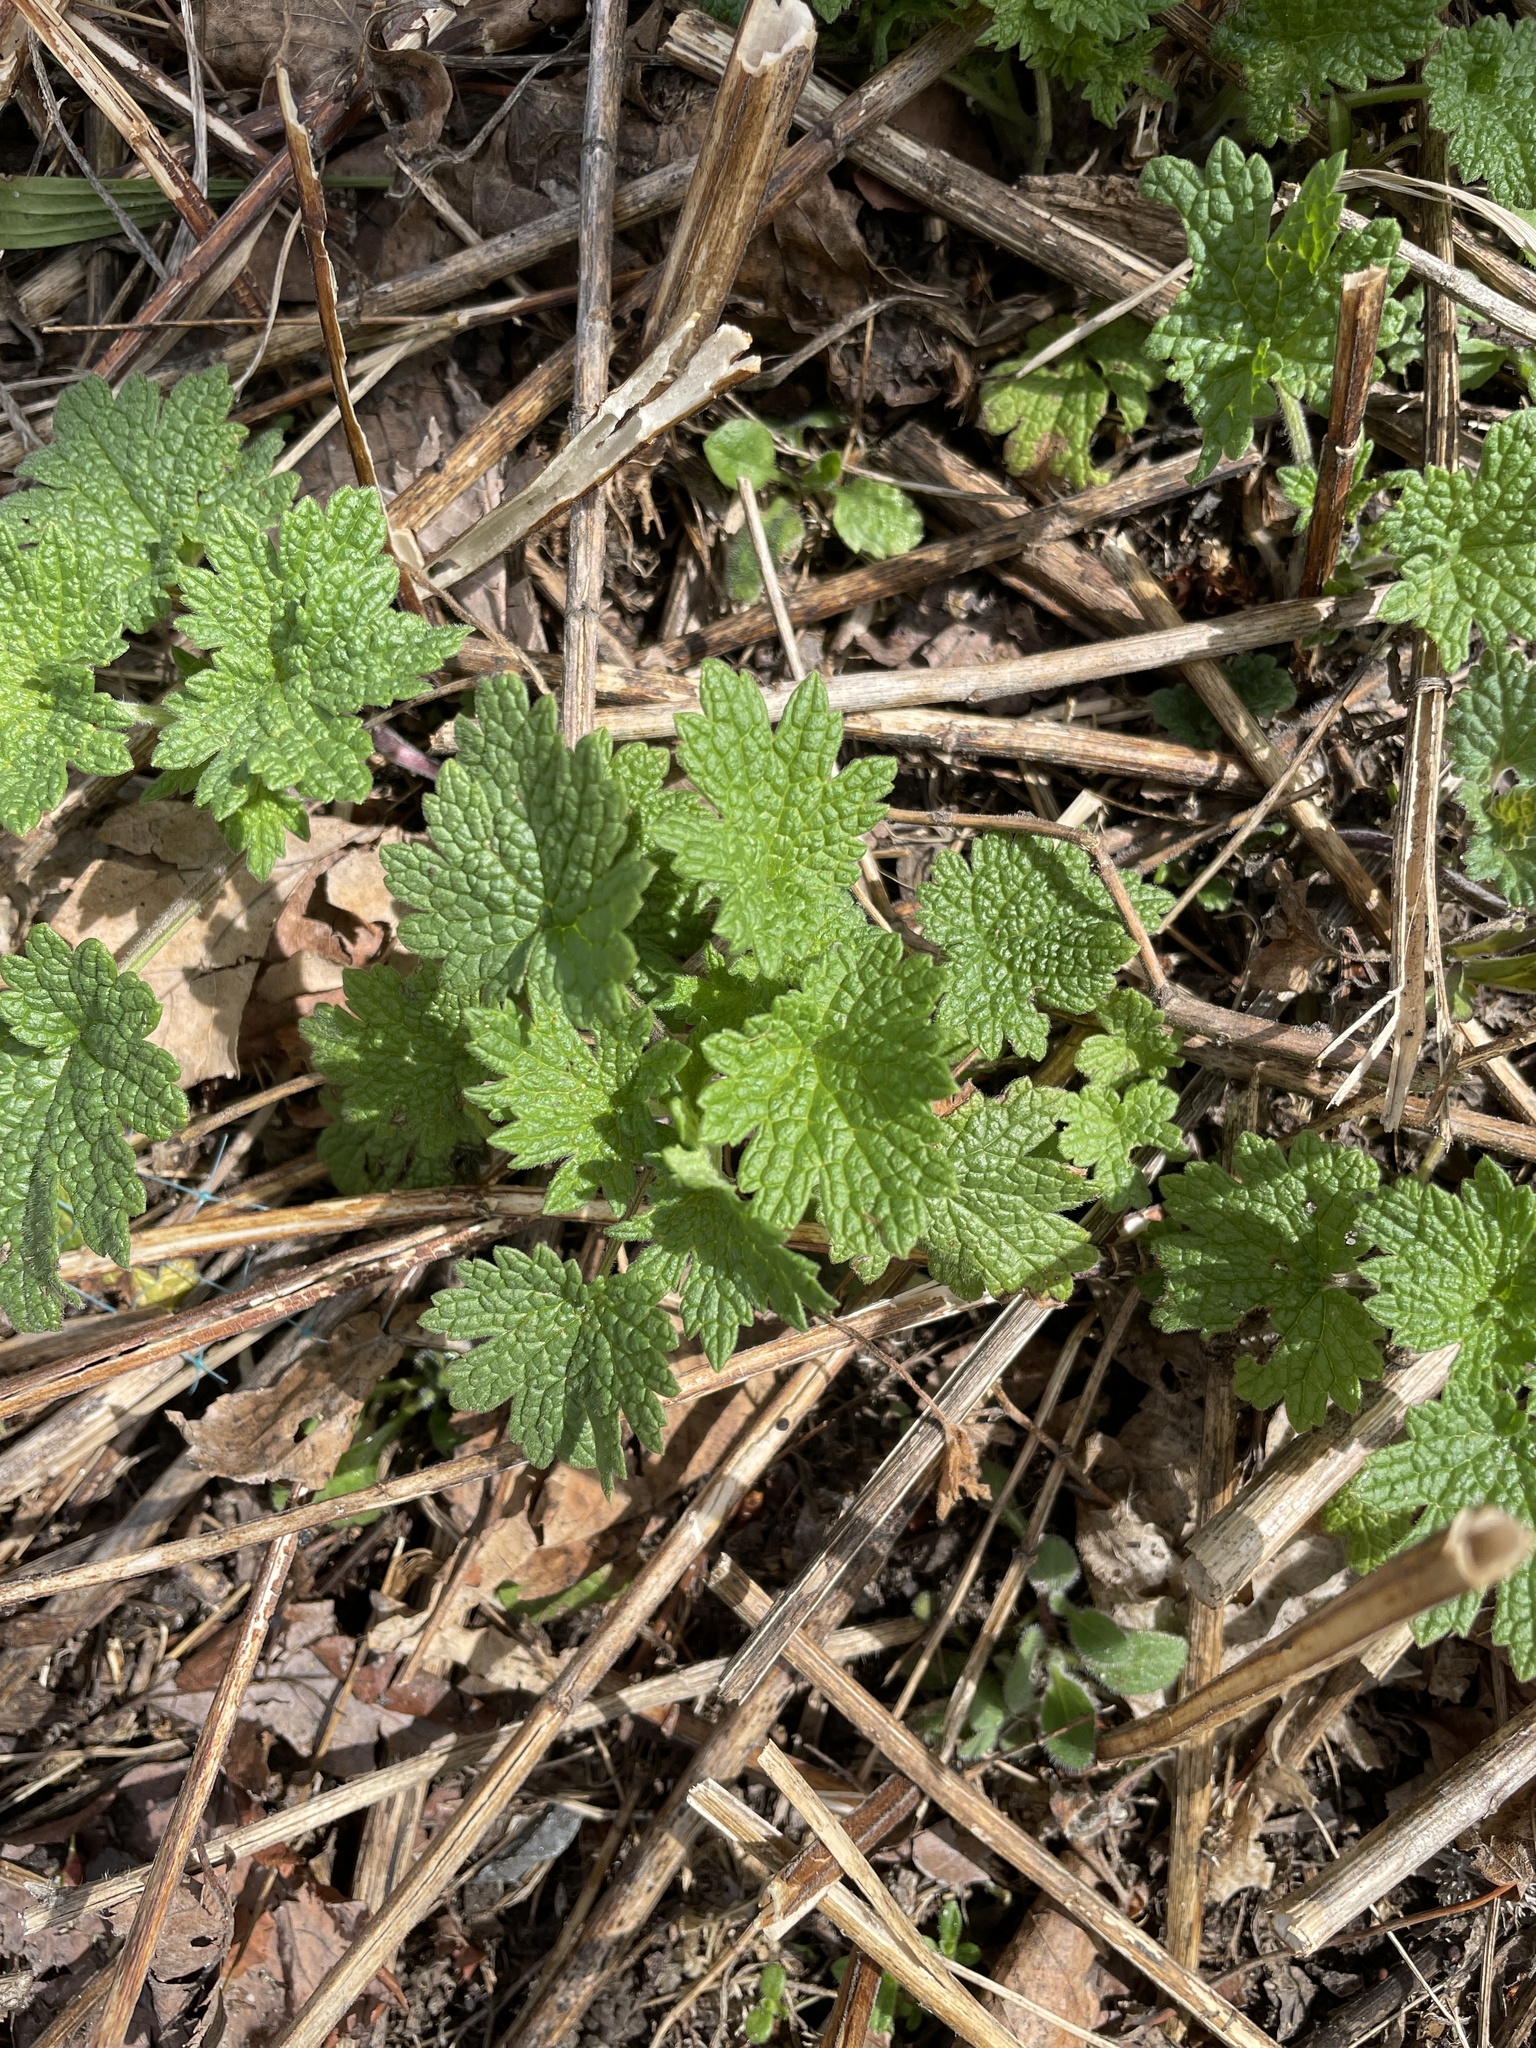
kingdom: Plantae
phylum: Tracheophyta
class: Magnoliopsida
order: Lamiales
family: Lamiaceae
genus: Leonurus
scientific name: Leonurus cardiaca
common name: Motherwort
